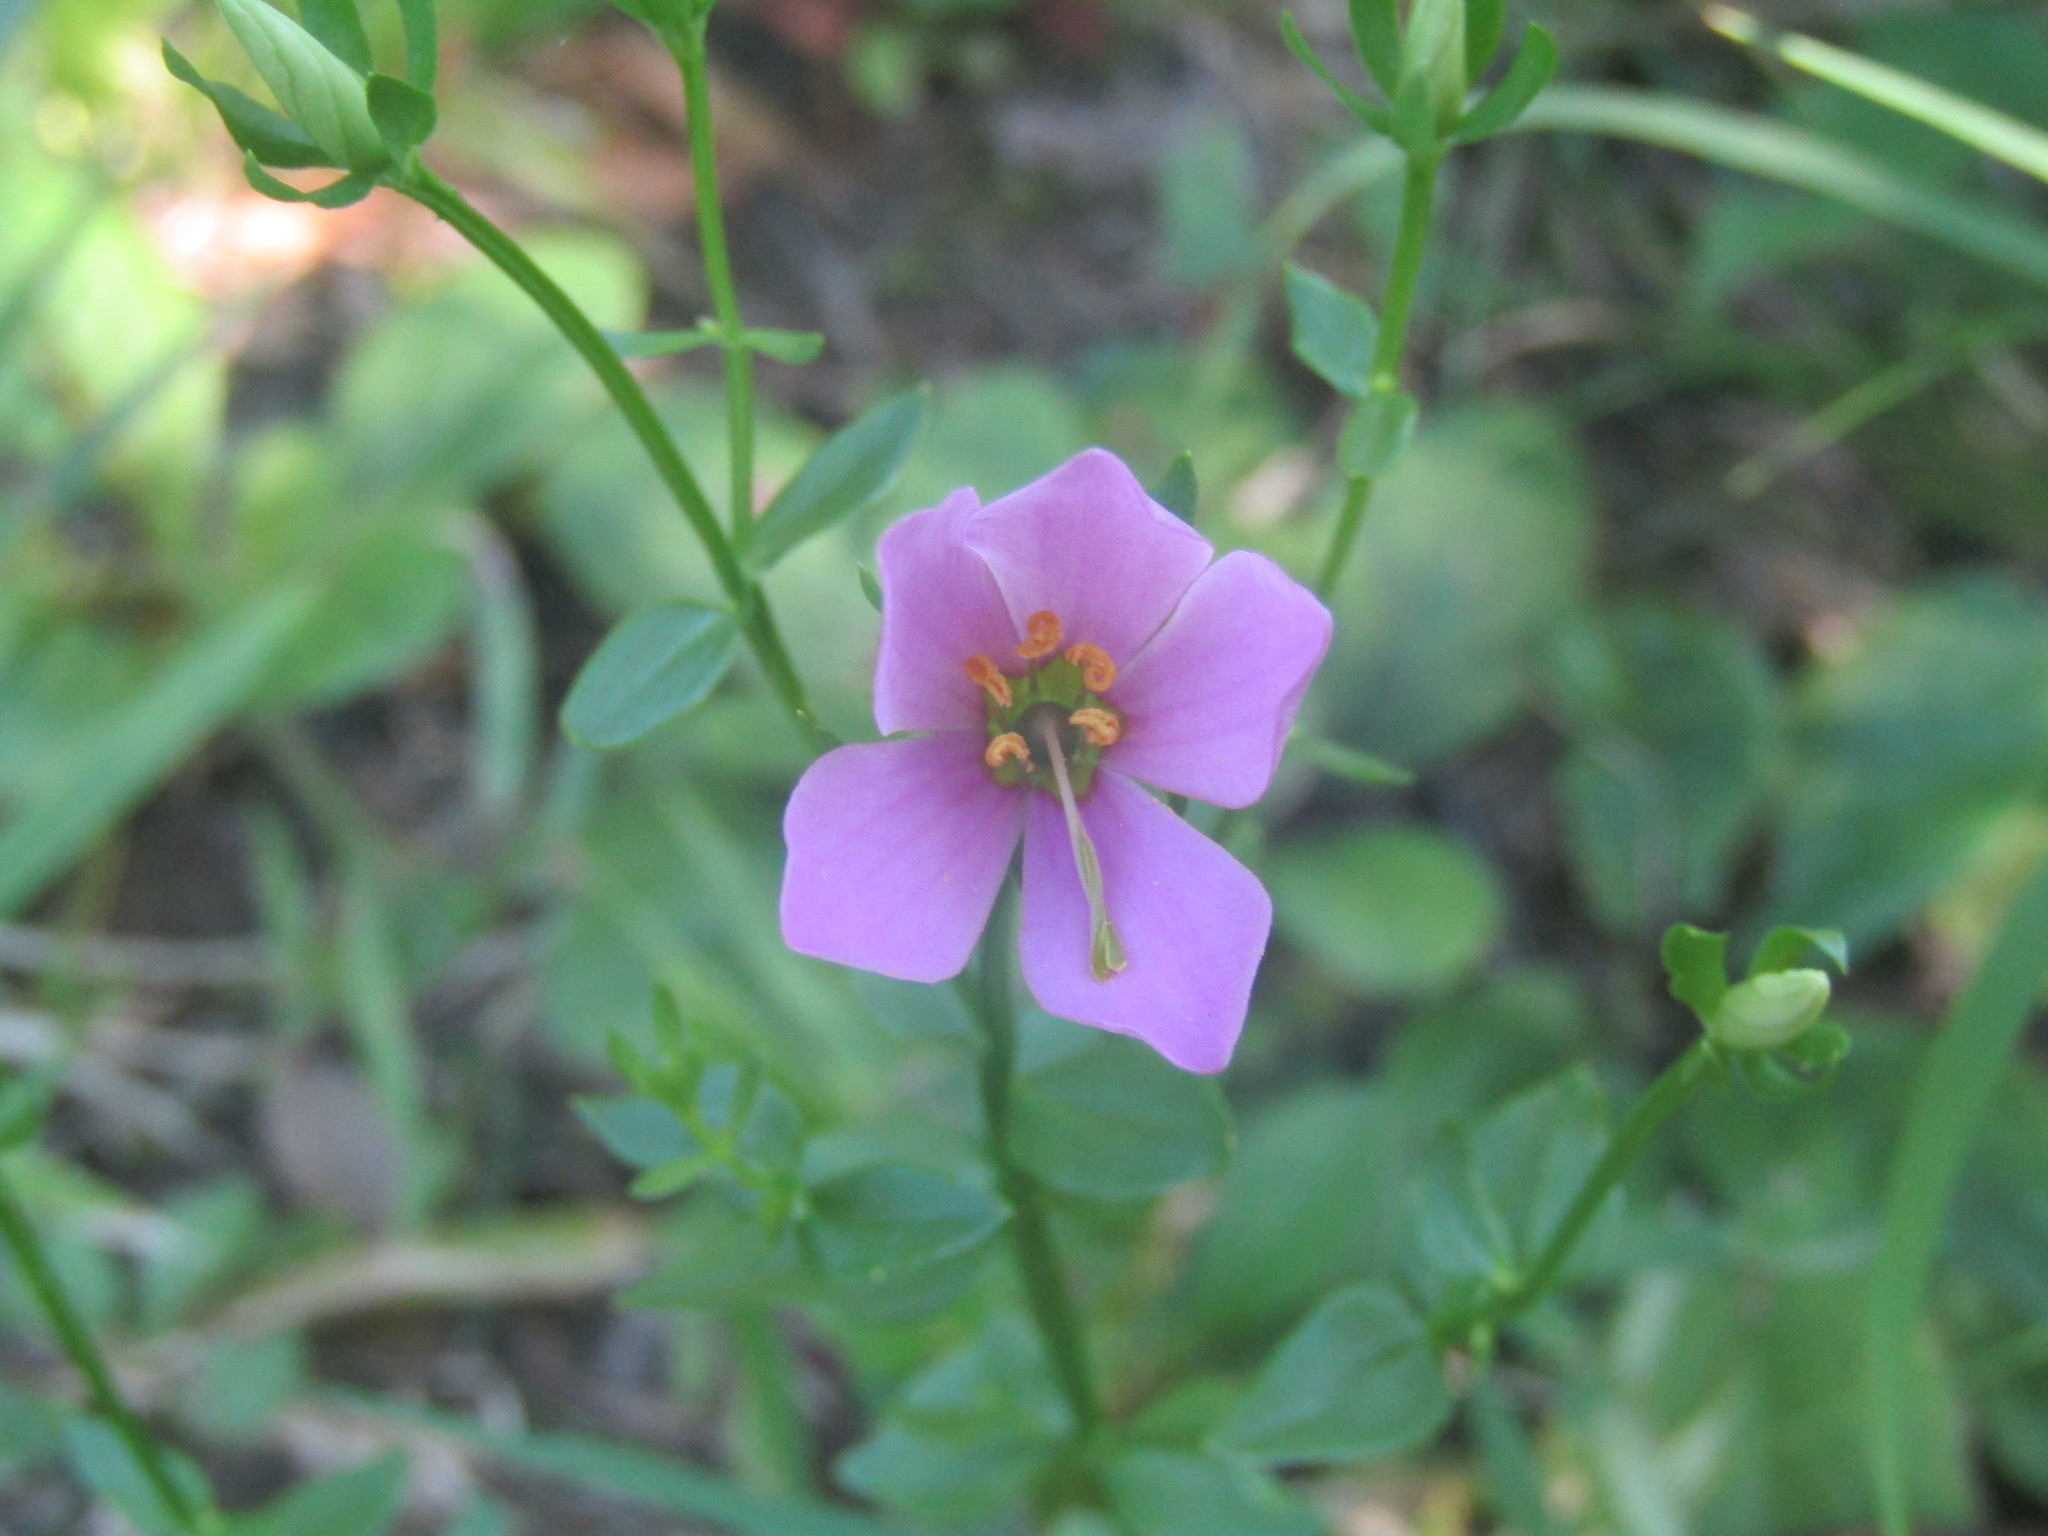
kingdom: Plantae
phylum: Tracheophyta
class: Magnoliopsida
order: Gentianales
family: Gentianaceae
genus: Sabatia
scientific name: Sabatia angularis
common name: Rose-pink
